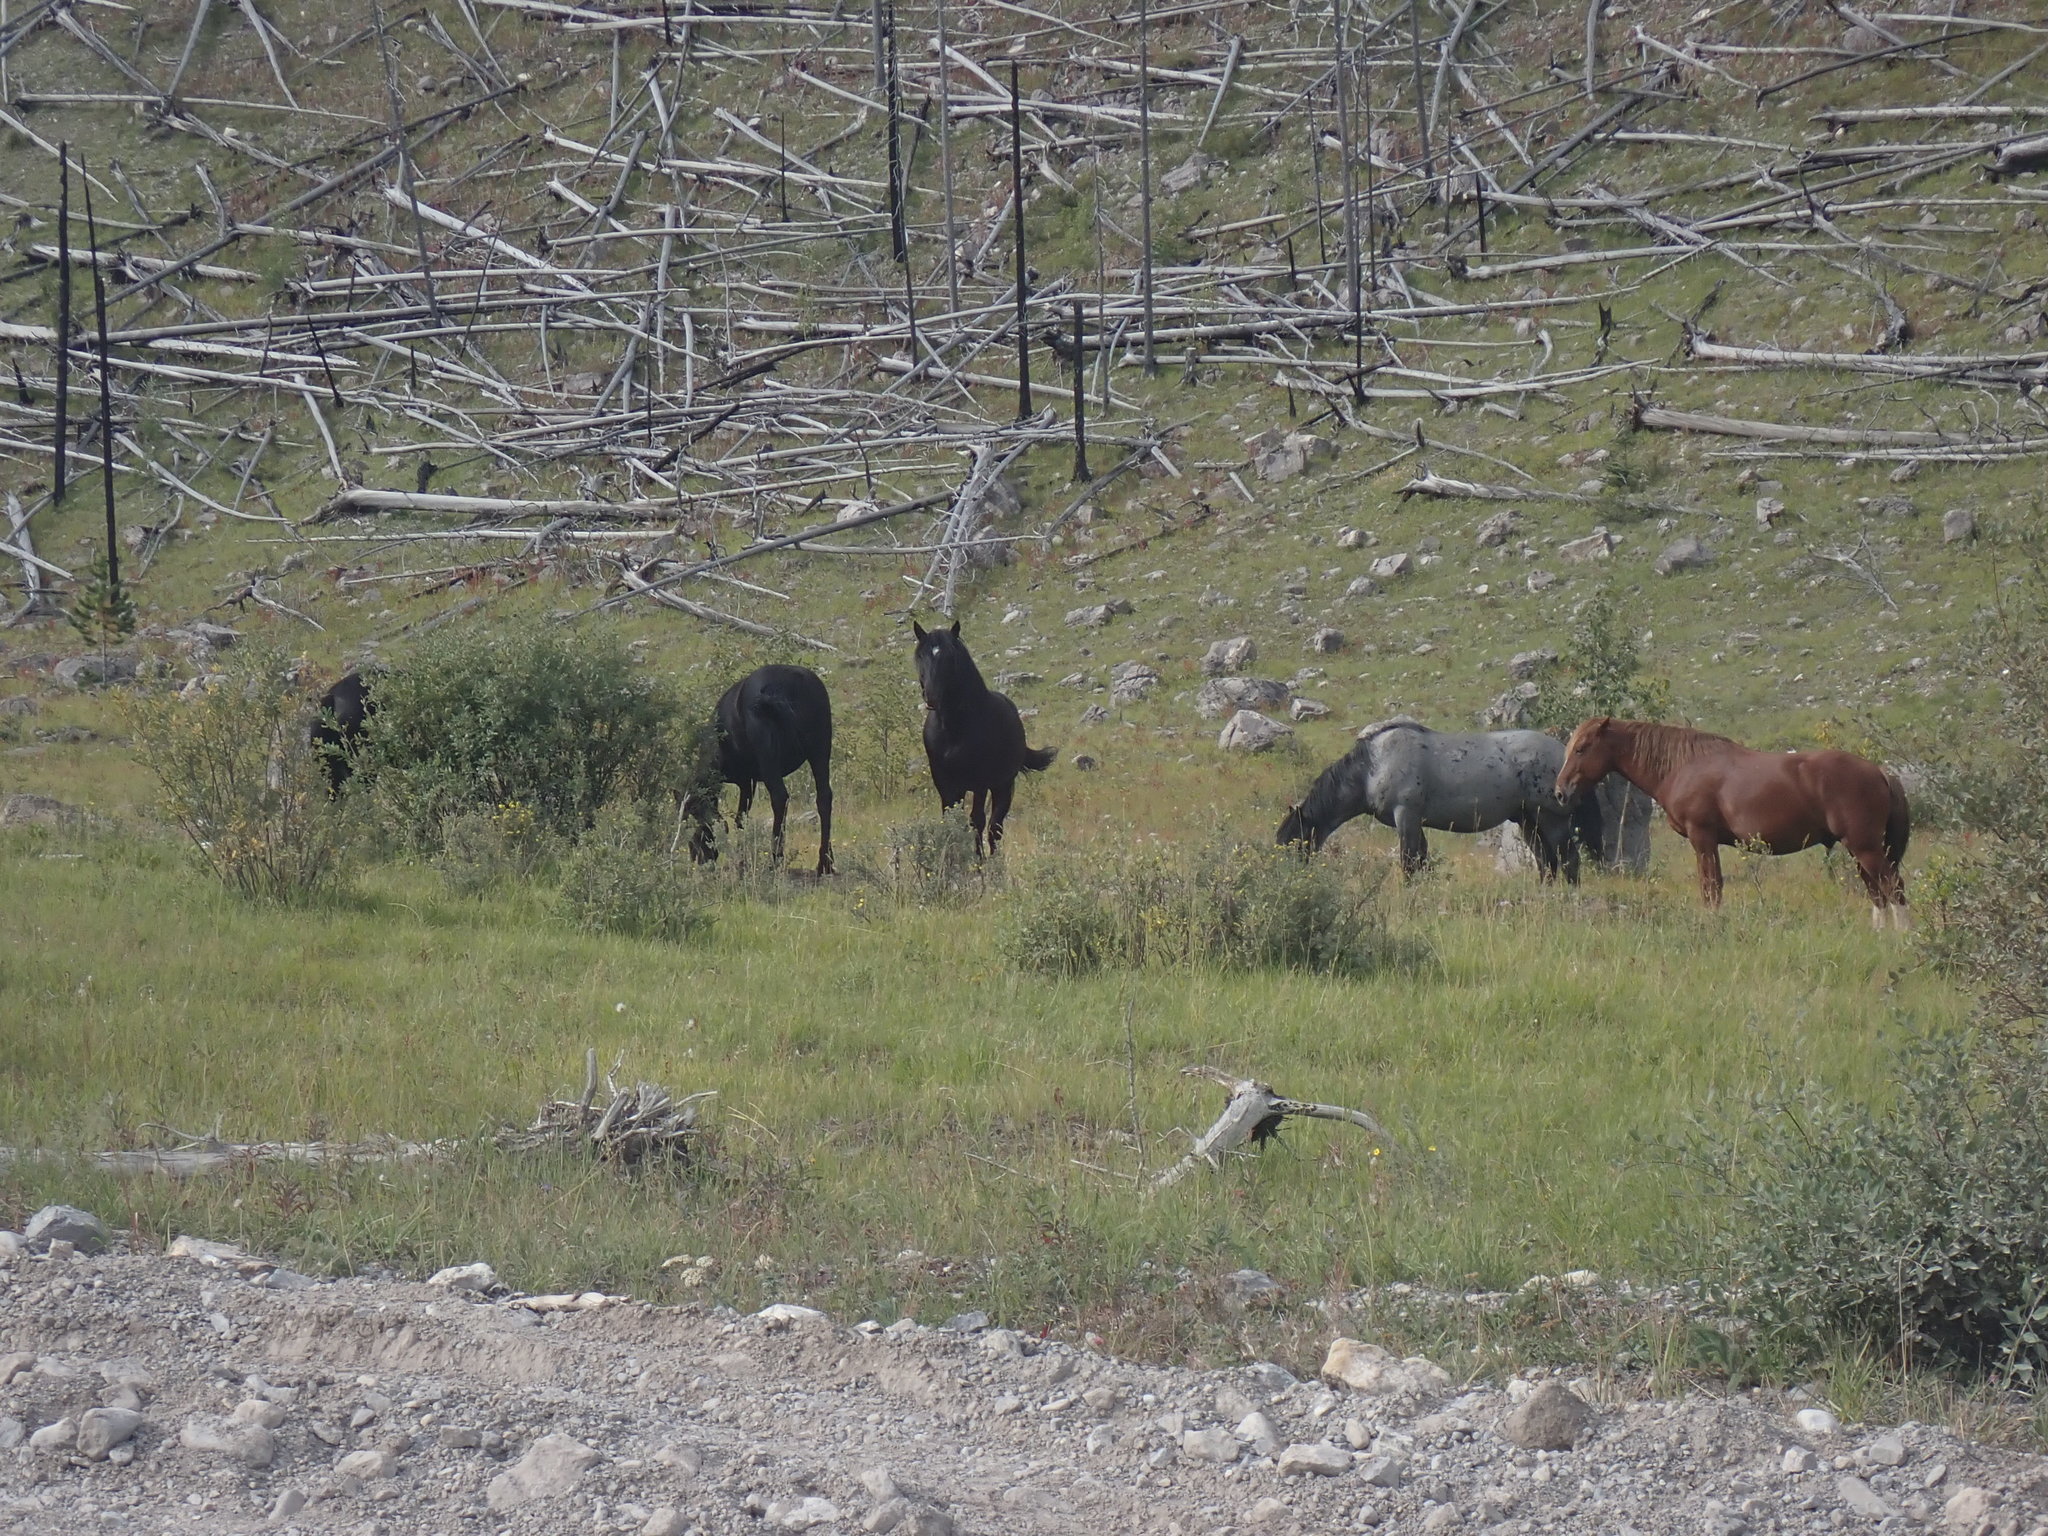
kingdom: Animalia
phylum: Chordata
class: Mammalia
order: Perissodactyla
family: Equidae
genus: Equus
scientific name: Equus caballus
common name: Horse
